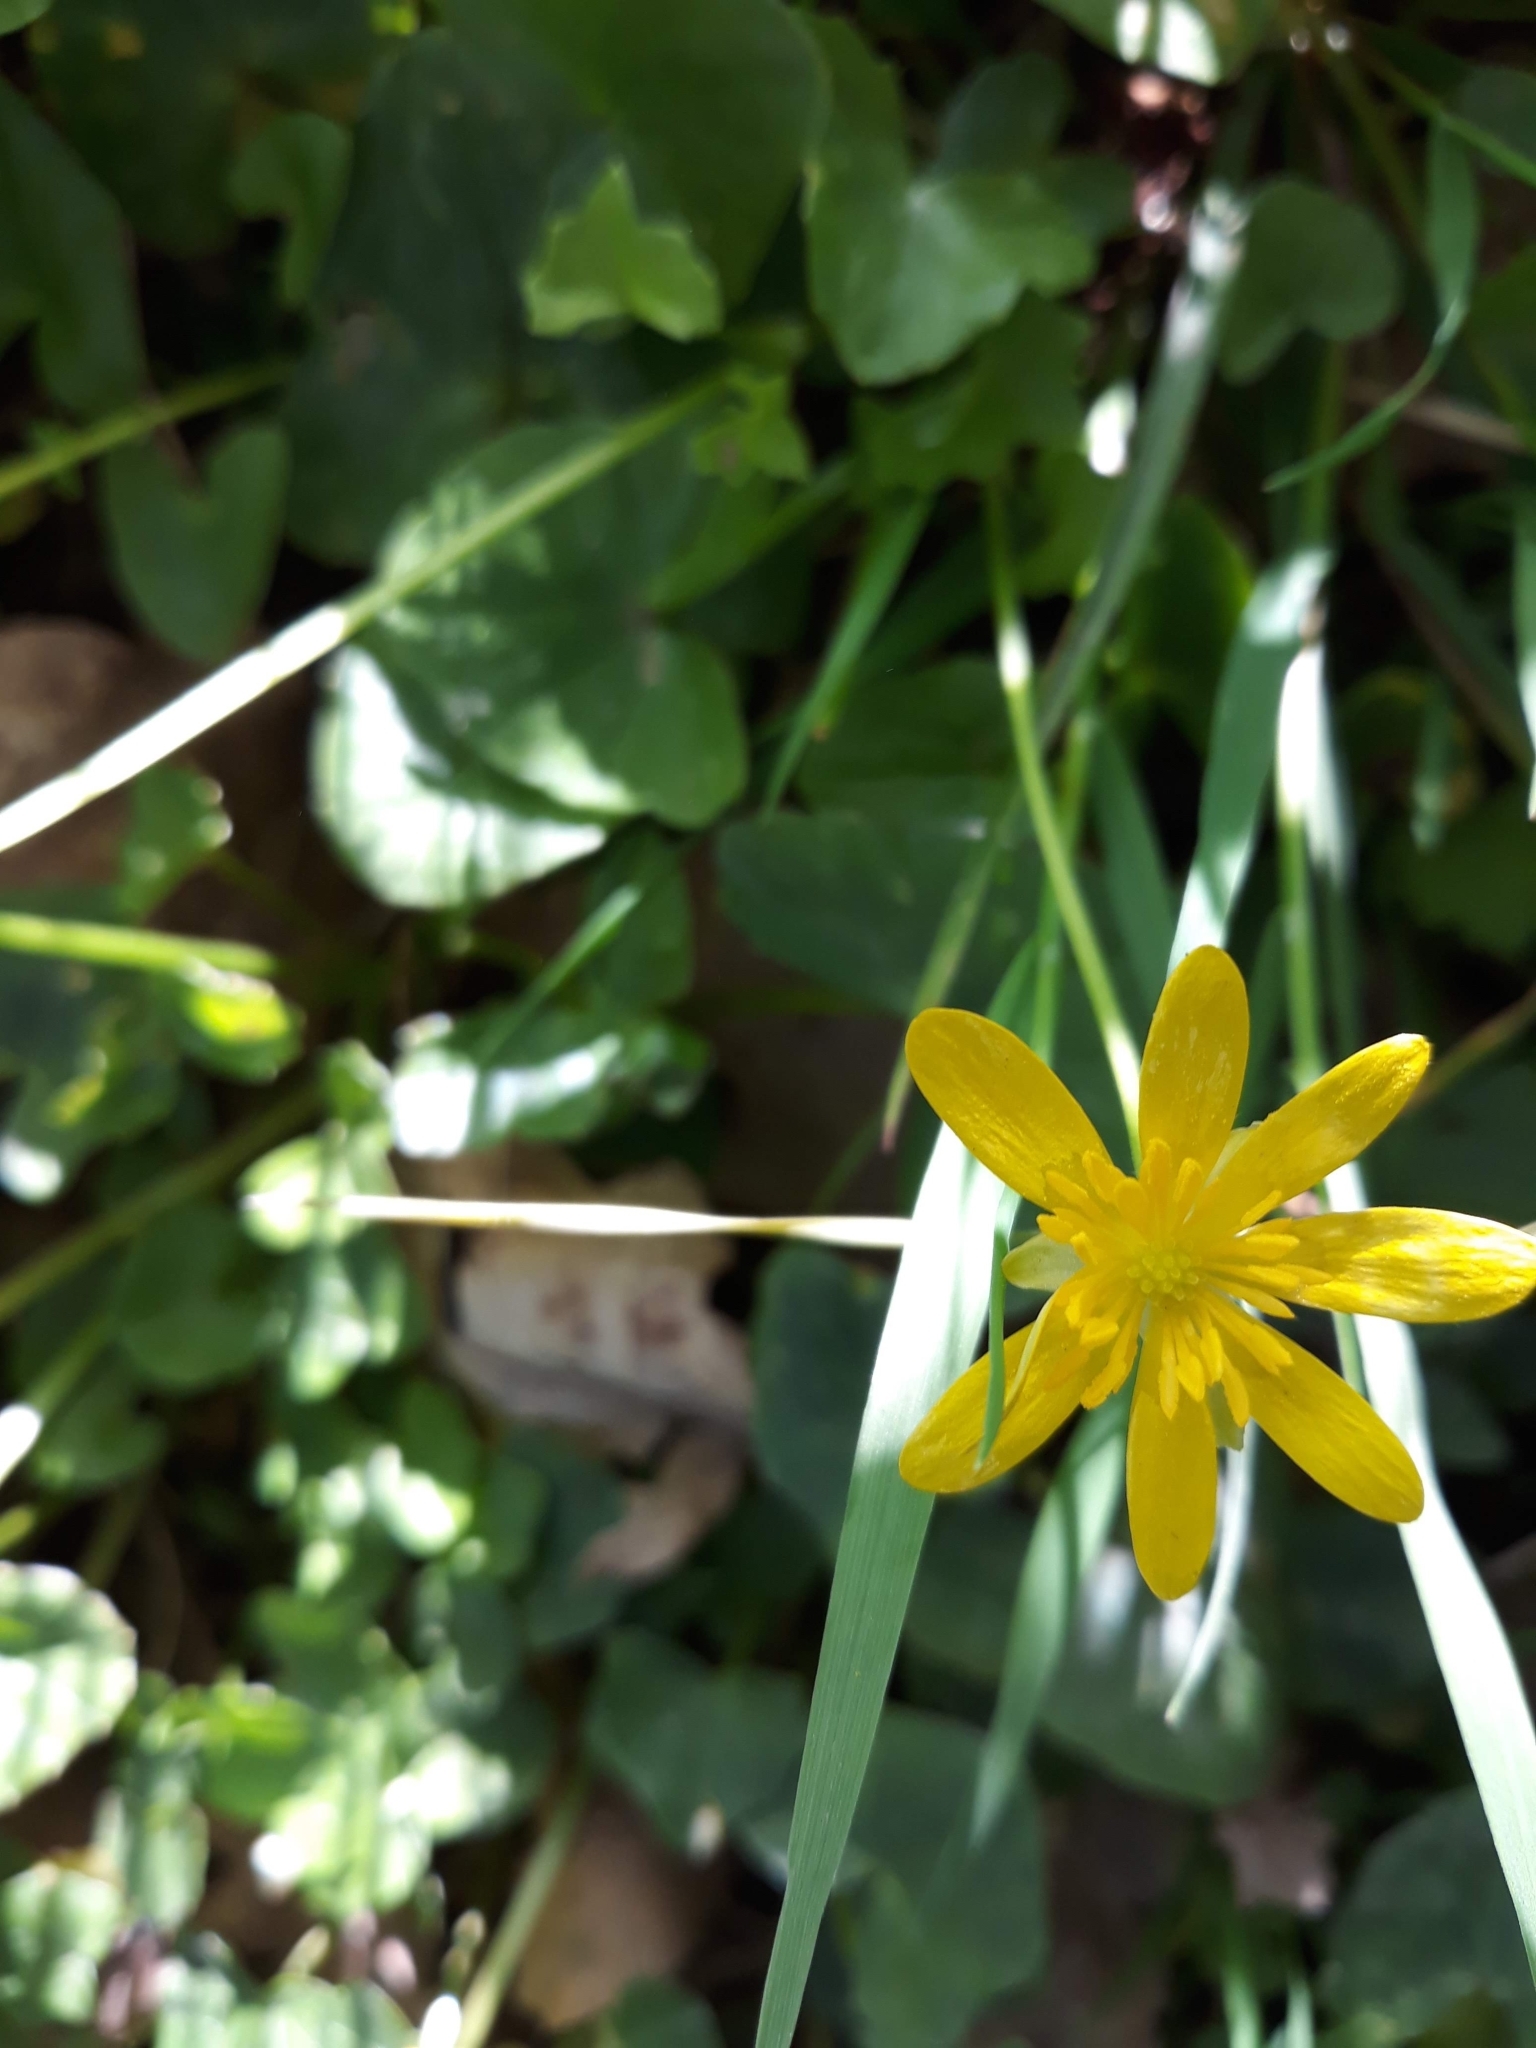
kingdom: Plantae
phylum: Tracheophyta
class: Magnoliopsida
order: Ranunculales
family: Ranunculaceae
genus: Ficaria
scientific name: Ficaria verna
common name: Lesser celandine
